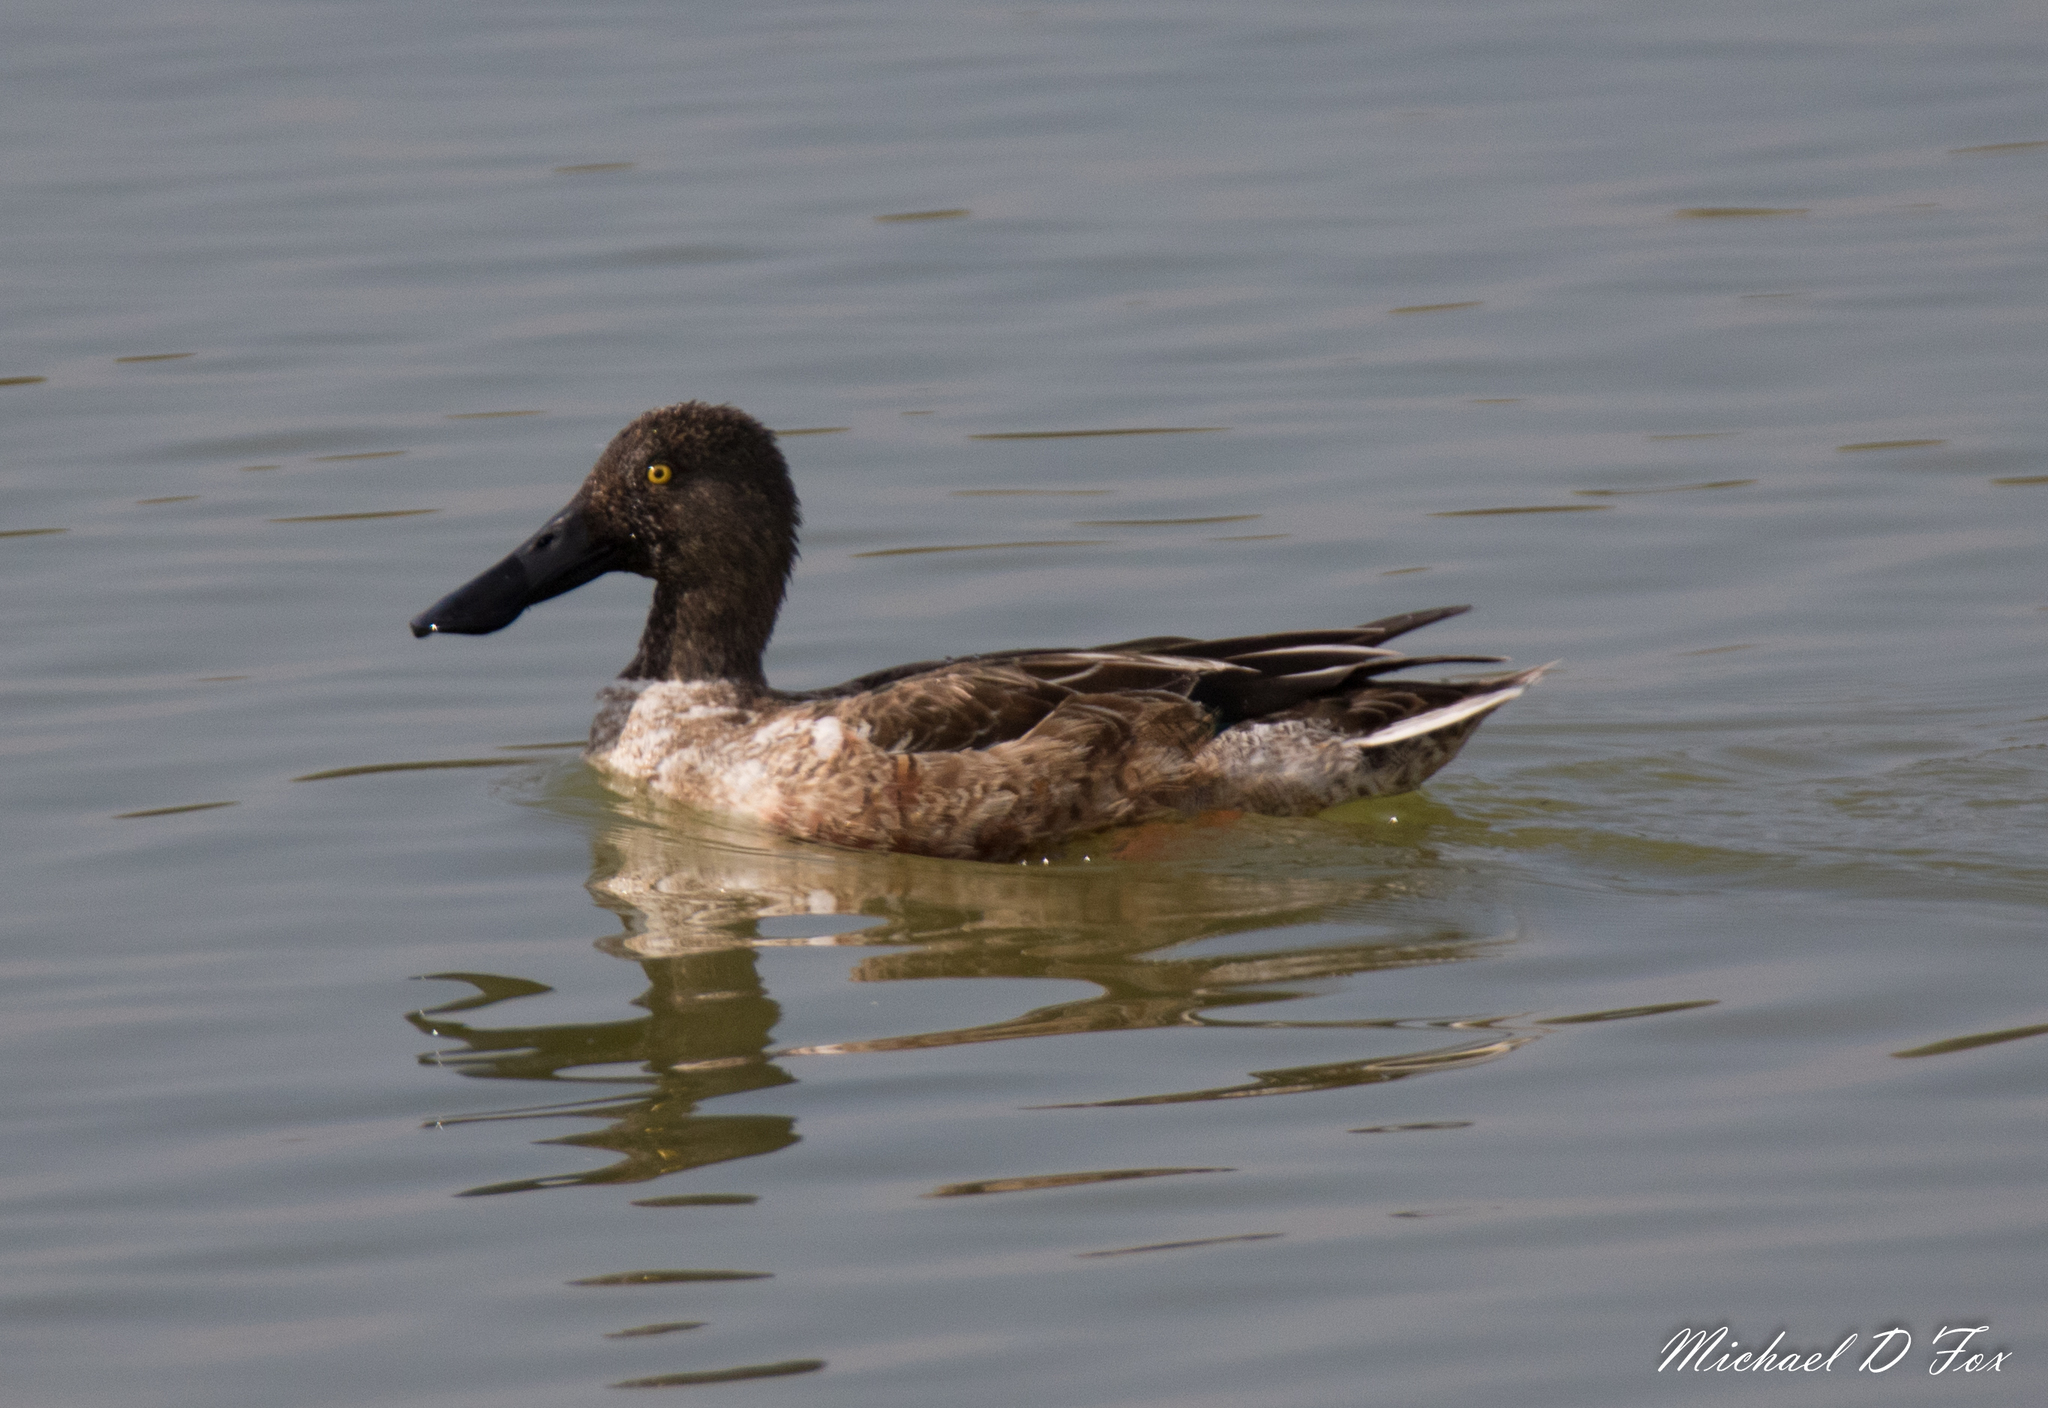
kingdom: Animalia
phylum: Chordata
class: Aves
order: Anseriformes
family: Anatidae
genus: Spatula
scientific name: Spatula clypeata
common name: Northern shoveler
